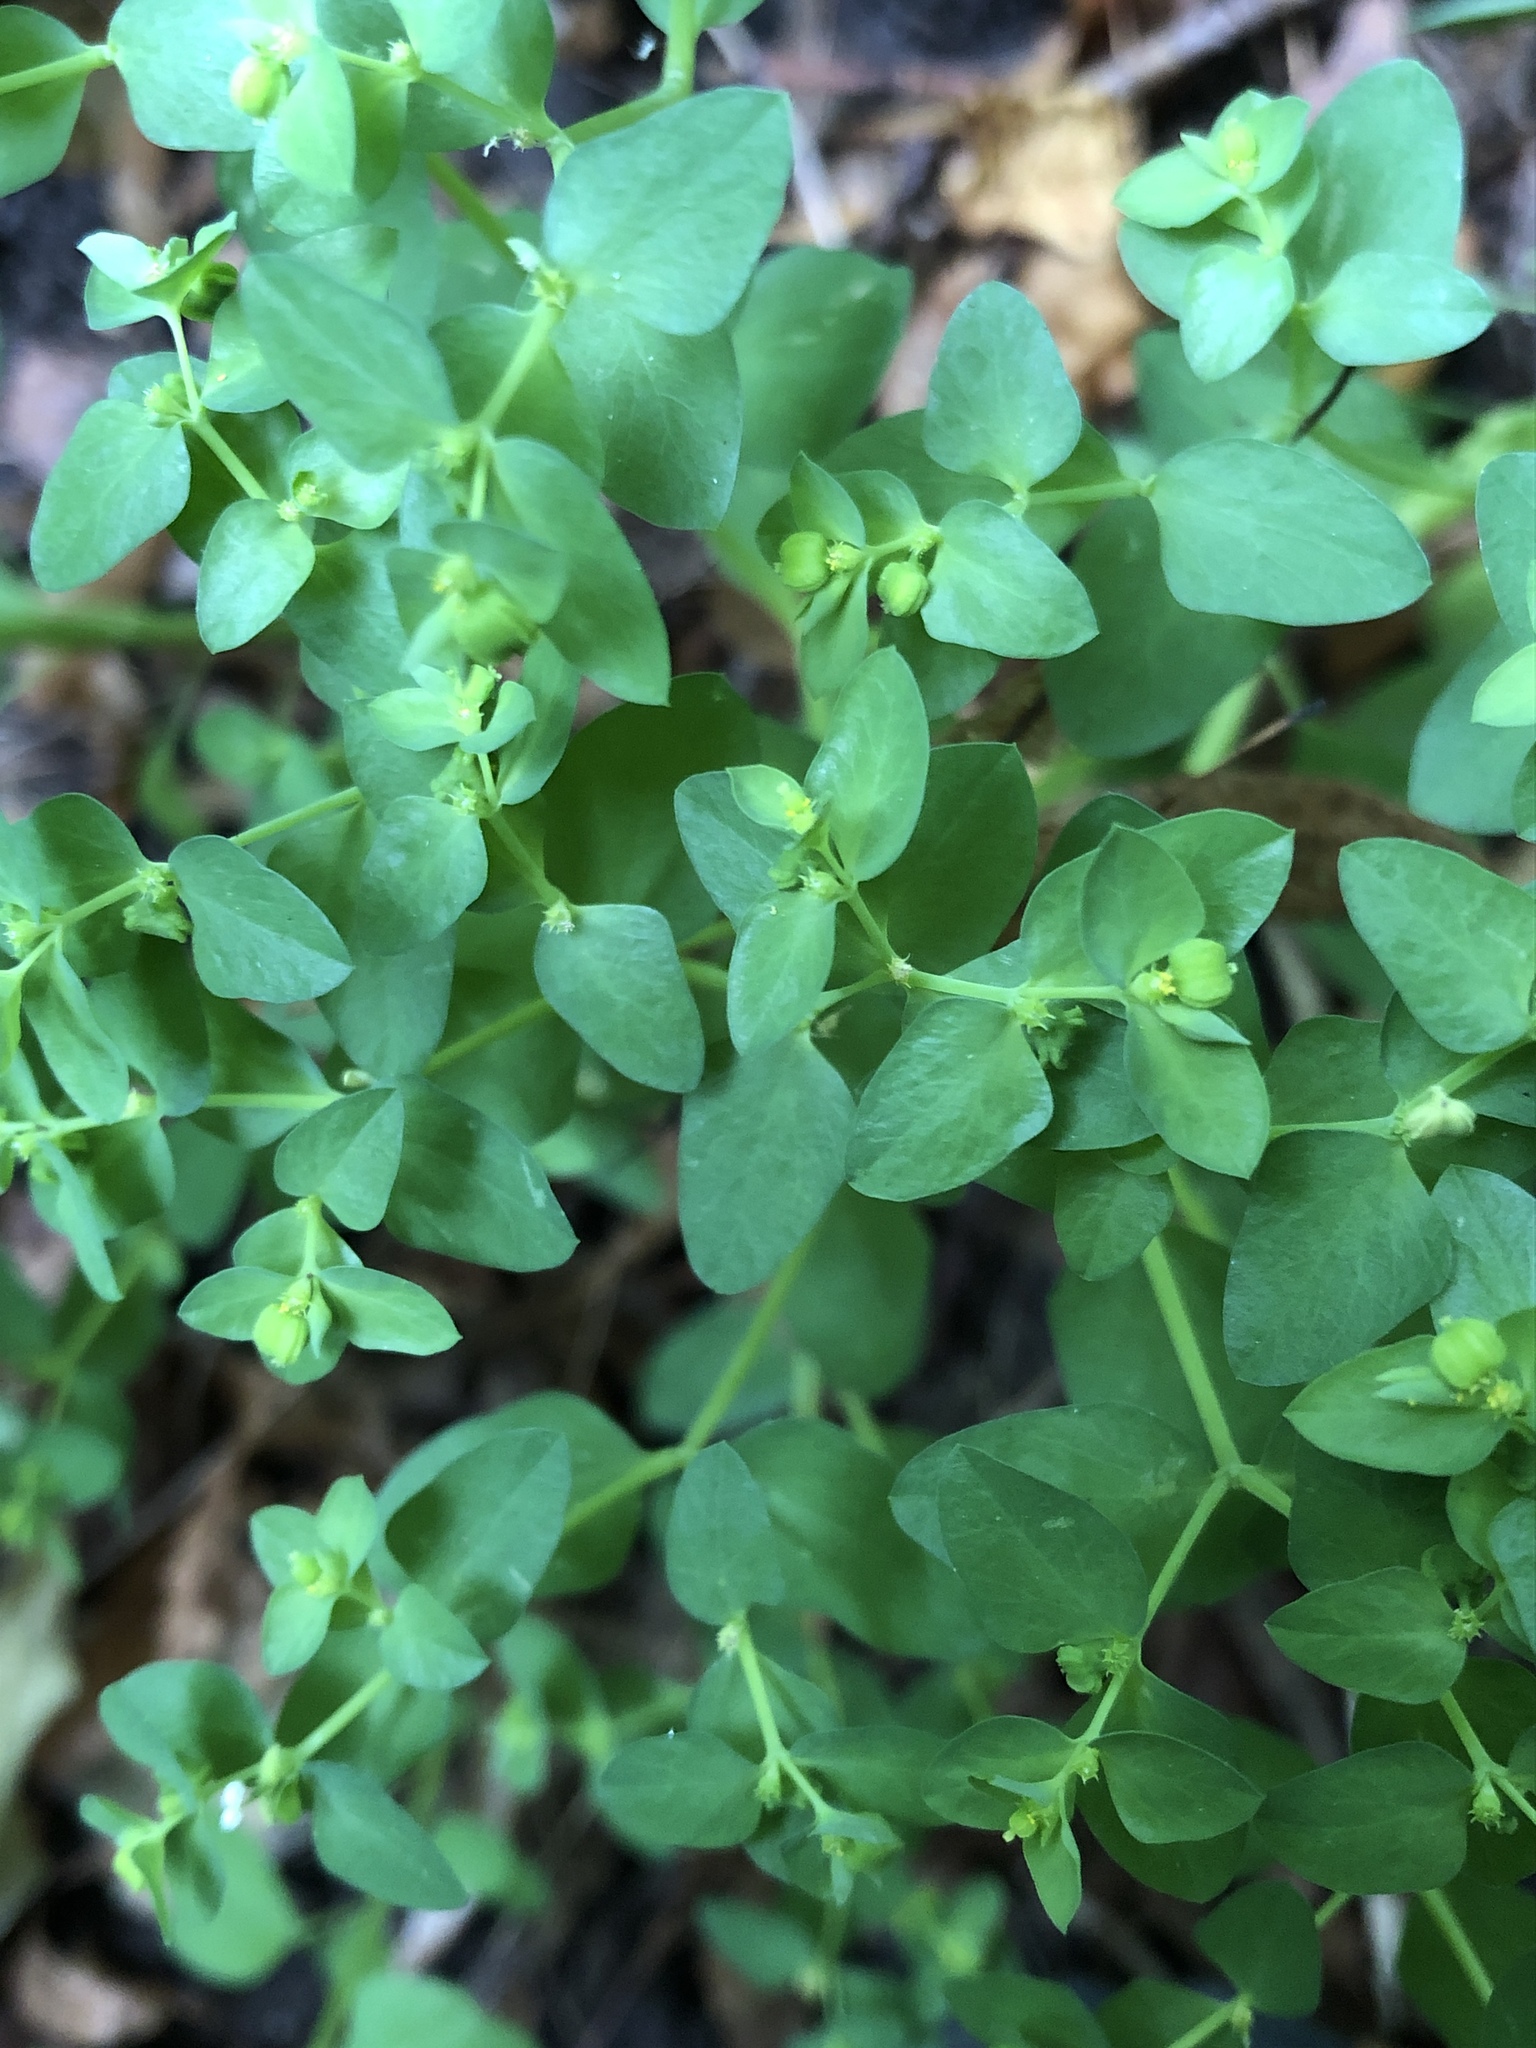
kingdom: Plantae
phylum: Tracheophyta
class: Magnoliopsida
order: Malpighiales
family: Euphorbiaceae
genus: Euphorbia
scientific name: Euphorbia peplus
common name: Petty spurge
